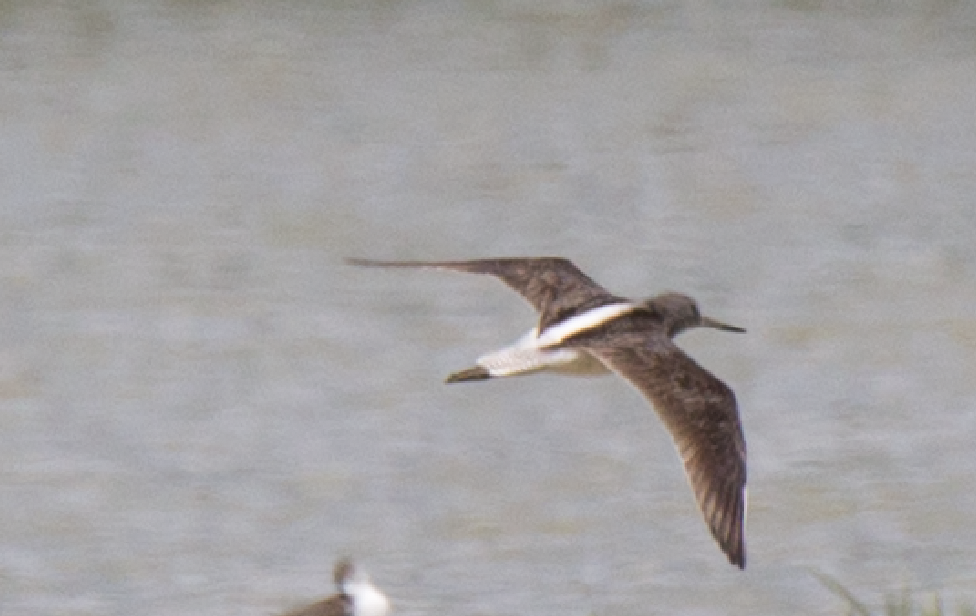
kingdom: Animalia
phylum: Chordata
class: Aves
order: Charadriiformes
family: Scolopacidae
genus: Tringa
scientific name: Tringa nebularia
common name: Common greenshank
